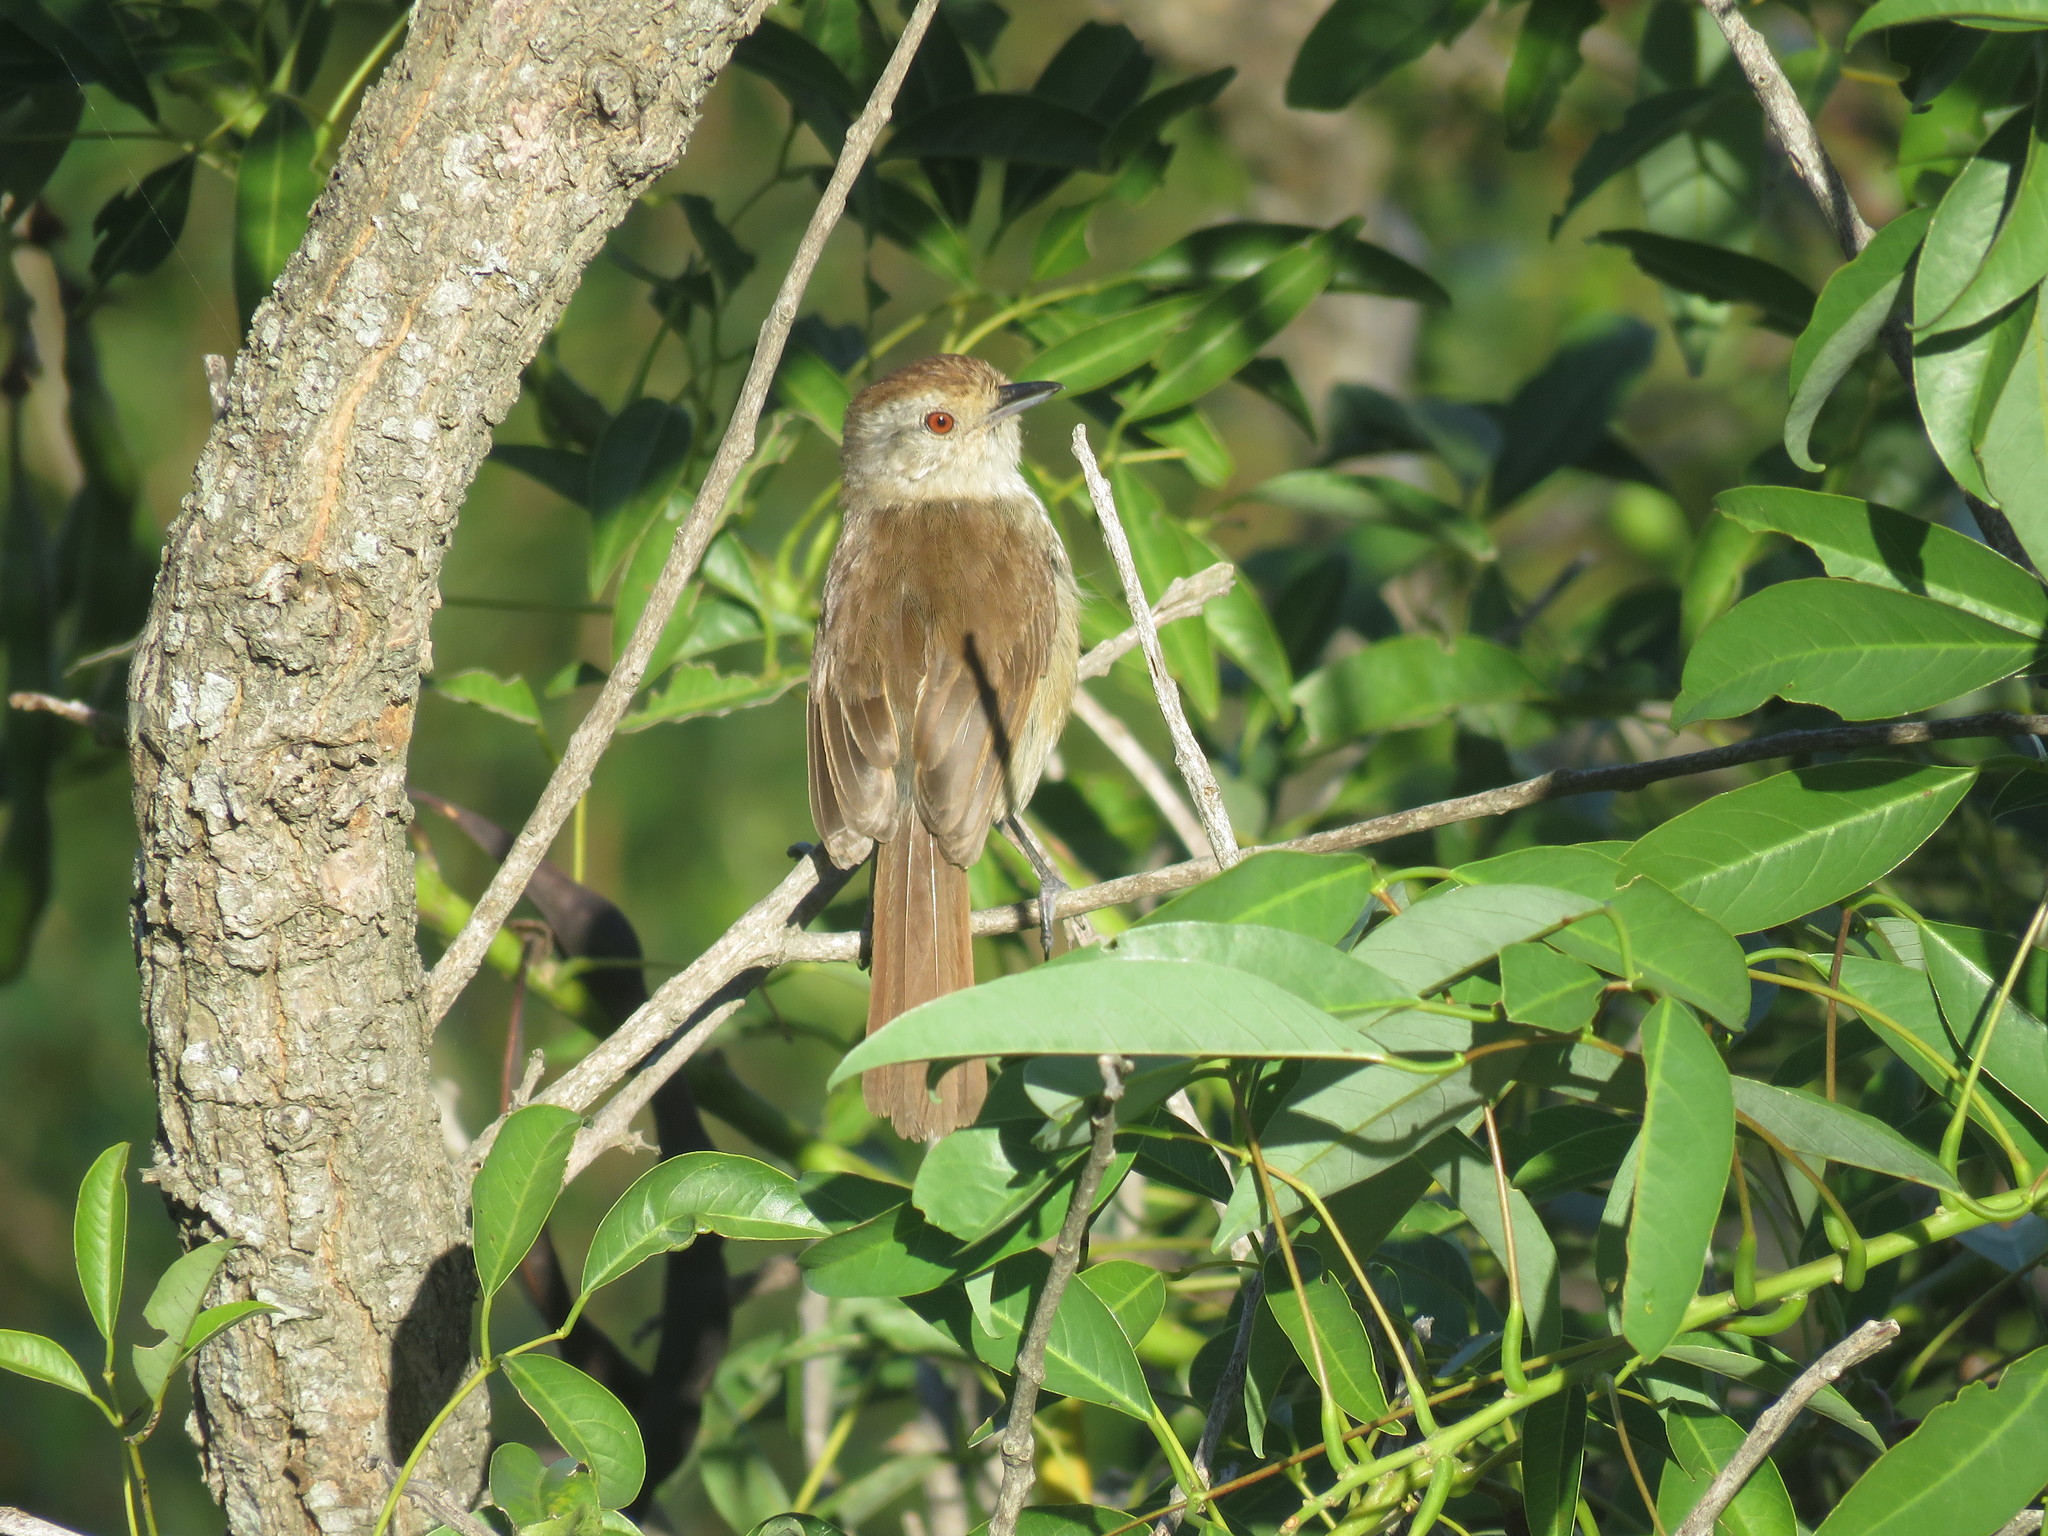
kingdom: Animalia
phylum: Chordata
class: Aves
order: Passeriformes
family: Thamnophilidae
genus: Thamnophilus
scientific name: Thamnophilus ruficapillus
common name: Rufous-capped antshrike
